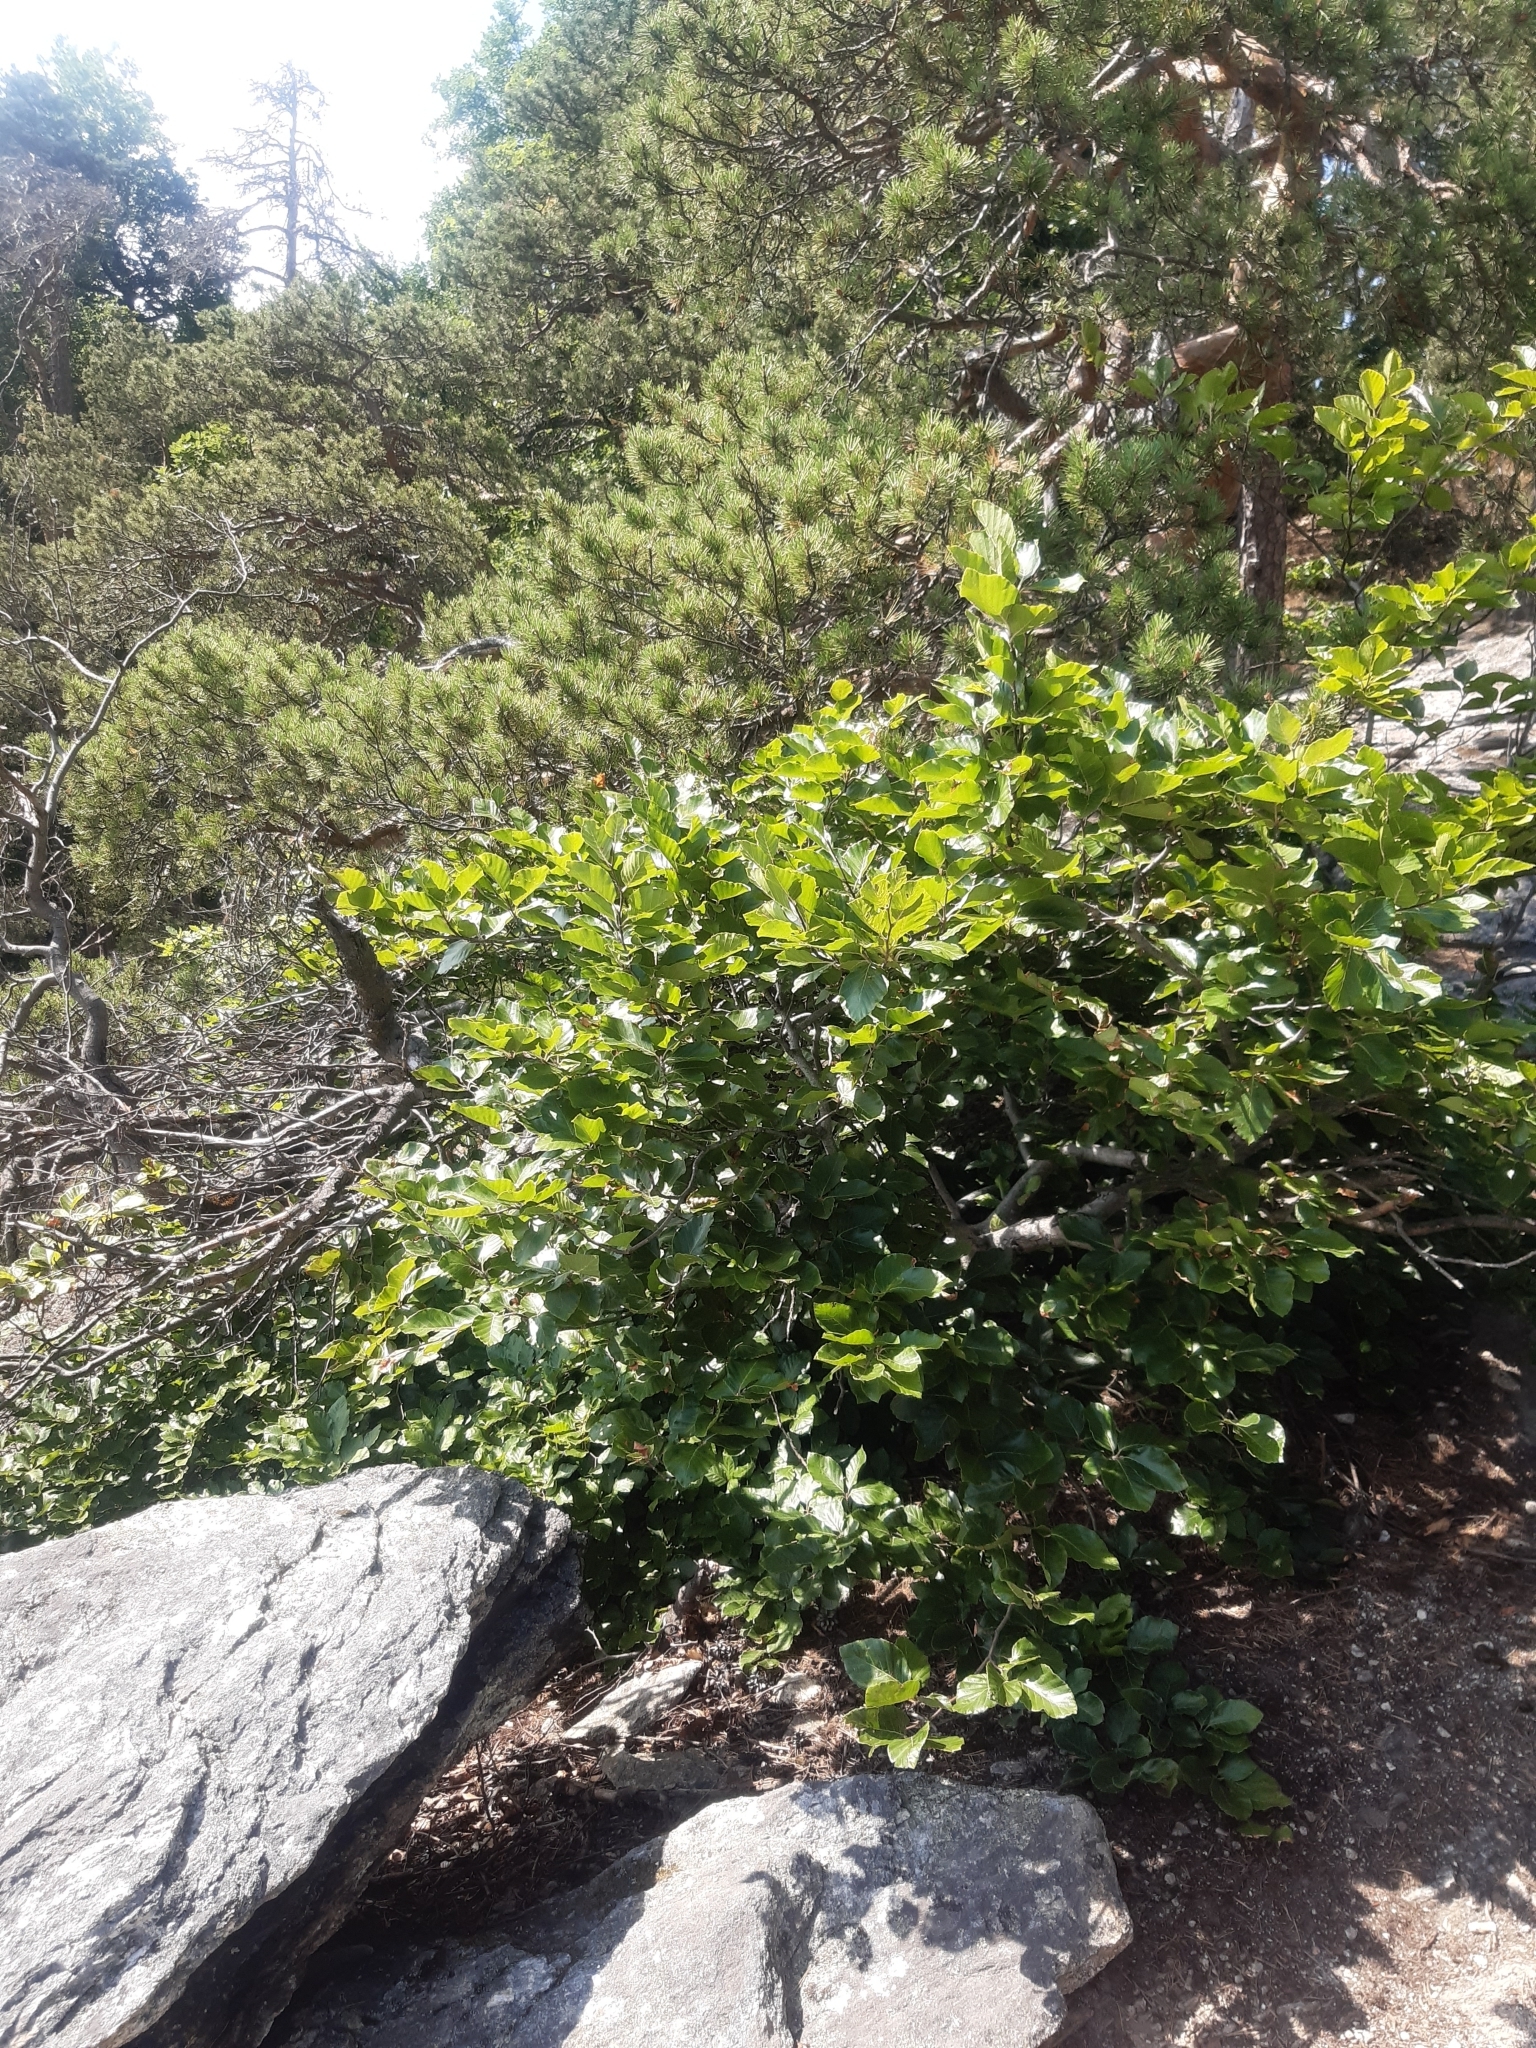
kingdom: Plantae
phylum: Tracheophyta
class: Magnoliopsida
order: Fagales
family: Fagaceae
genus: Fagus
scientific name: Fagus sylvatica
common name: Beech
